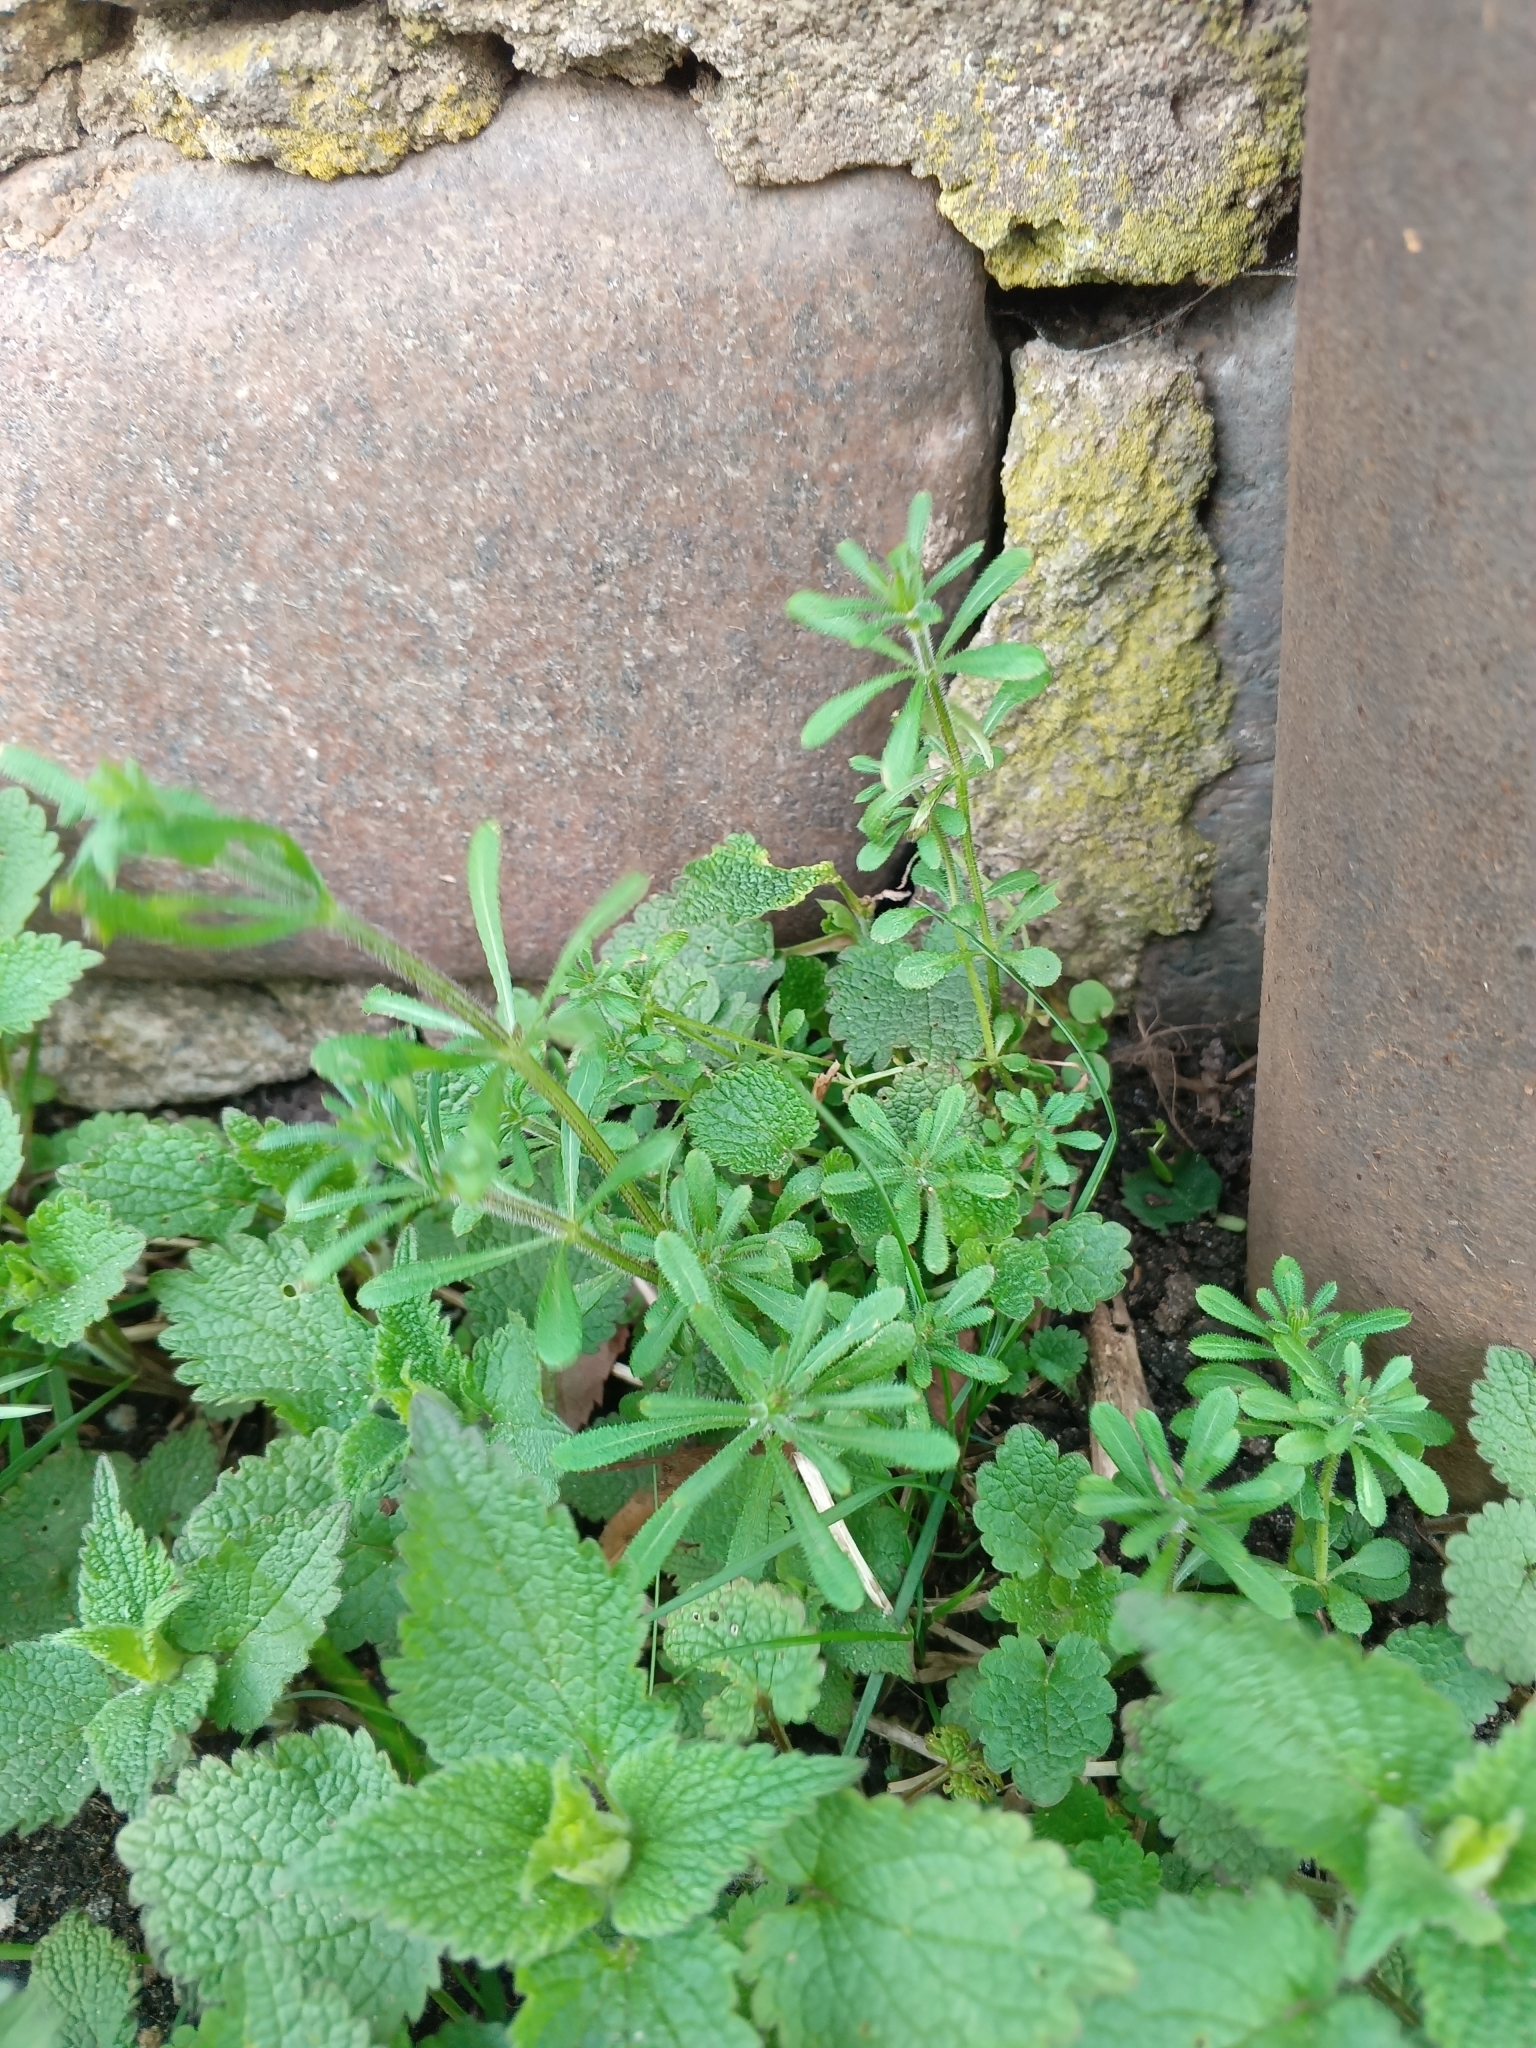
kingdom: Plantae
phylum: Tracheophyta
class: Magnoliopsida
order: Gentianales
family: Rubiaceae
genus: Galium
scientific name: Galium aparine
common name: Cleavers
